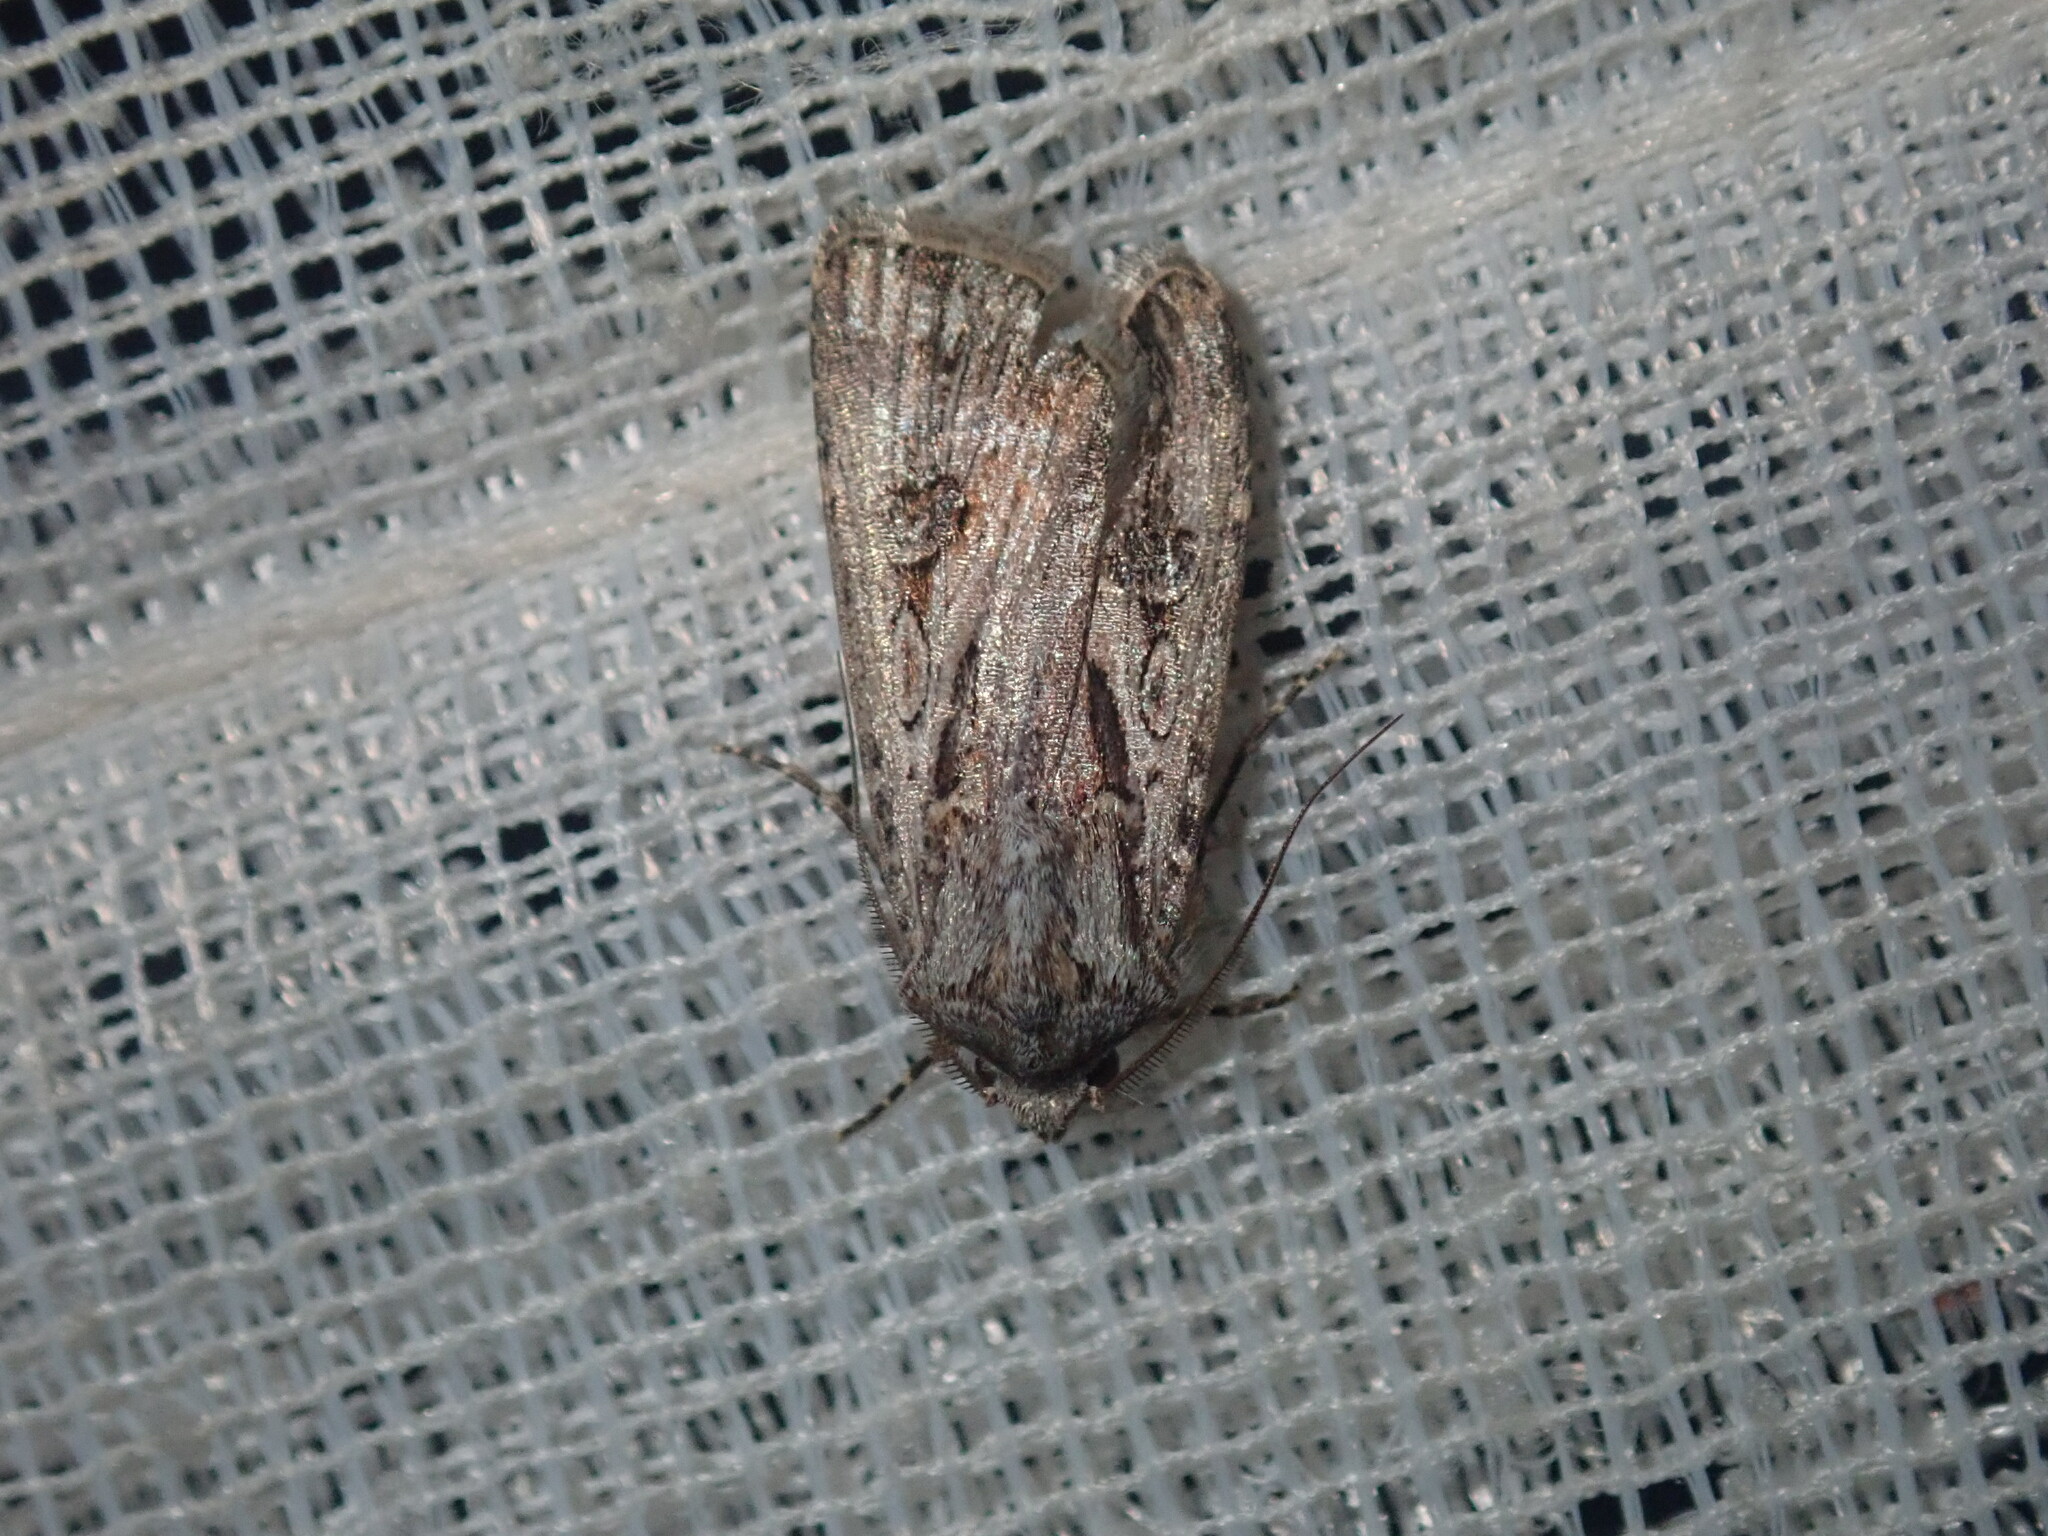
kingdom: Animalia
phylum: Arthropoda
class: Insecta
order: Lepidoptera
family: Noctuidae
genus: Agrotis
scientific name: Agrotis munda
